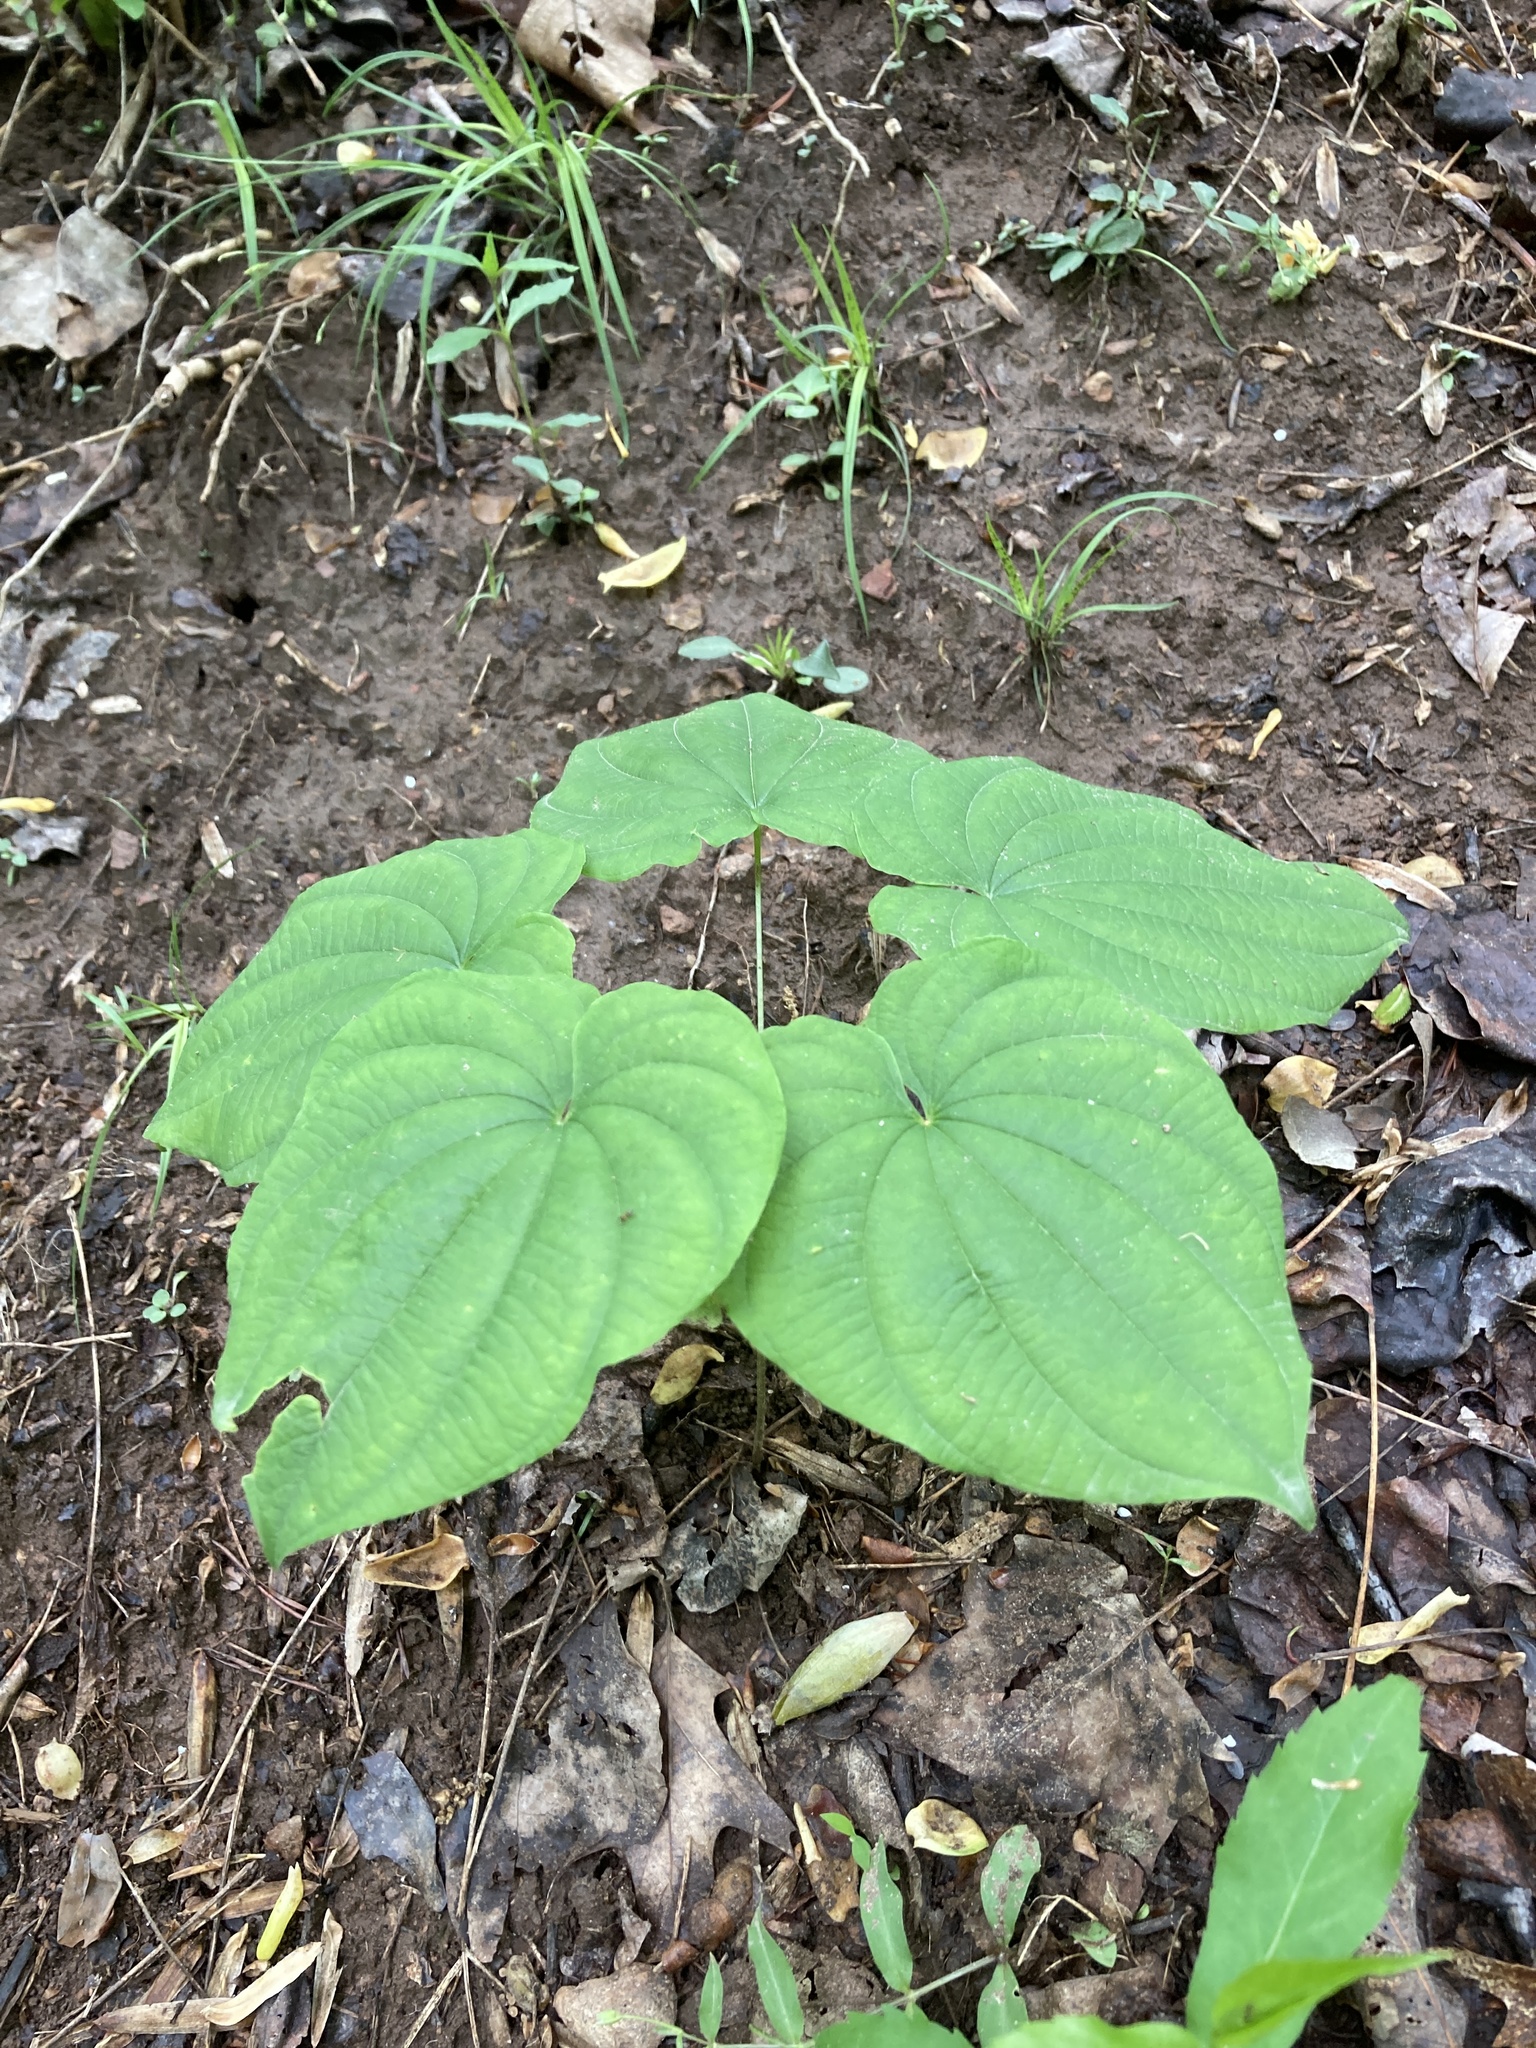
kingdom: Plantae
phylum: Tracheophyta
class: Liliopsida
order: Dioscoreales
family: Dioscoreaceae
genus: Dioscorea
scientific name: Dioscorea villosa
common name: Wild yam
